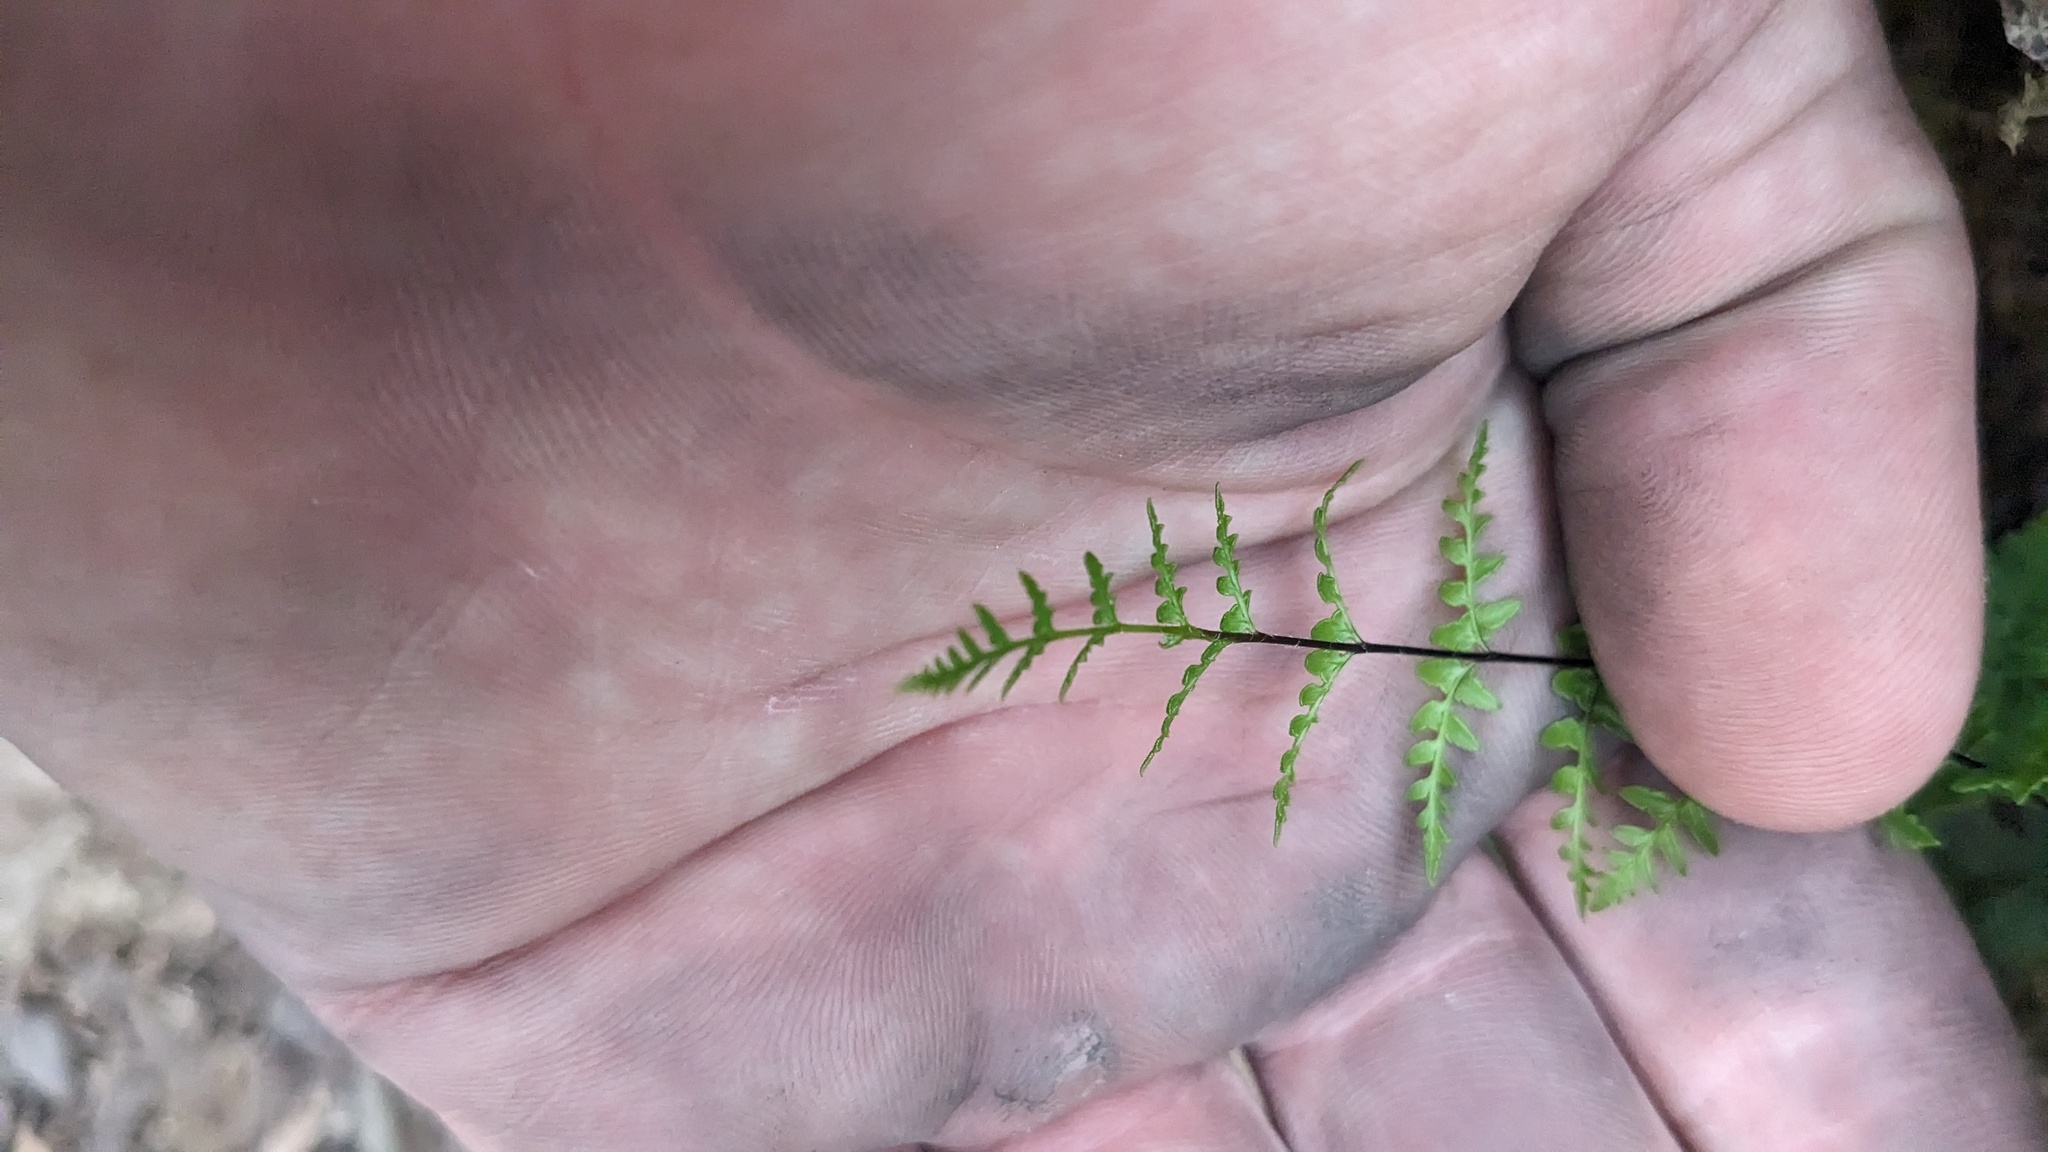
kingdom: Plantae
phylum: Tracheophyta
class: Polypodiopsida
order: Polypodiales
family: Pteridaceae
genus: Myriopteris
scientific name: Myriopteris alabamensis
